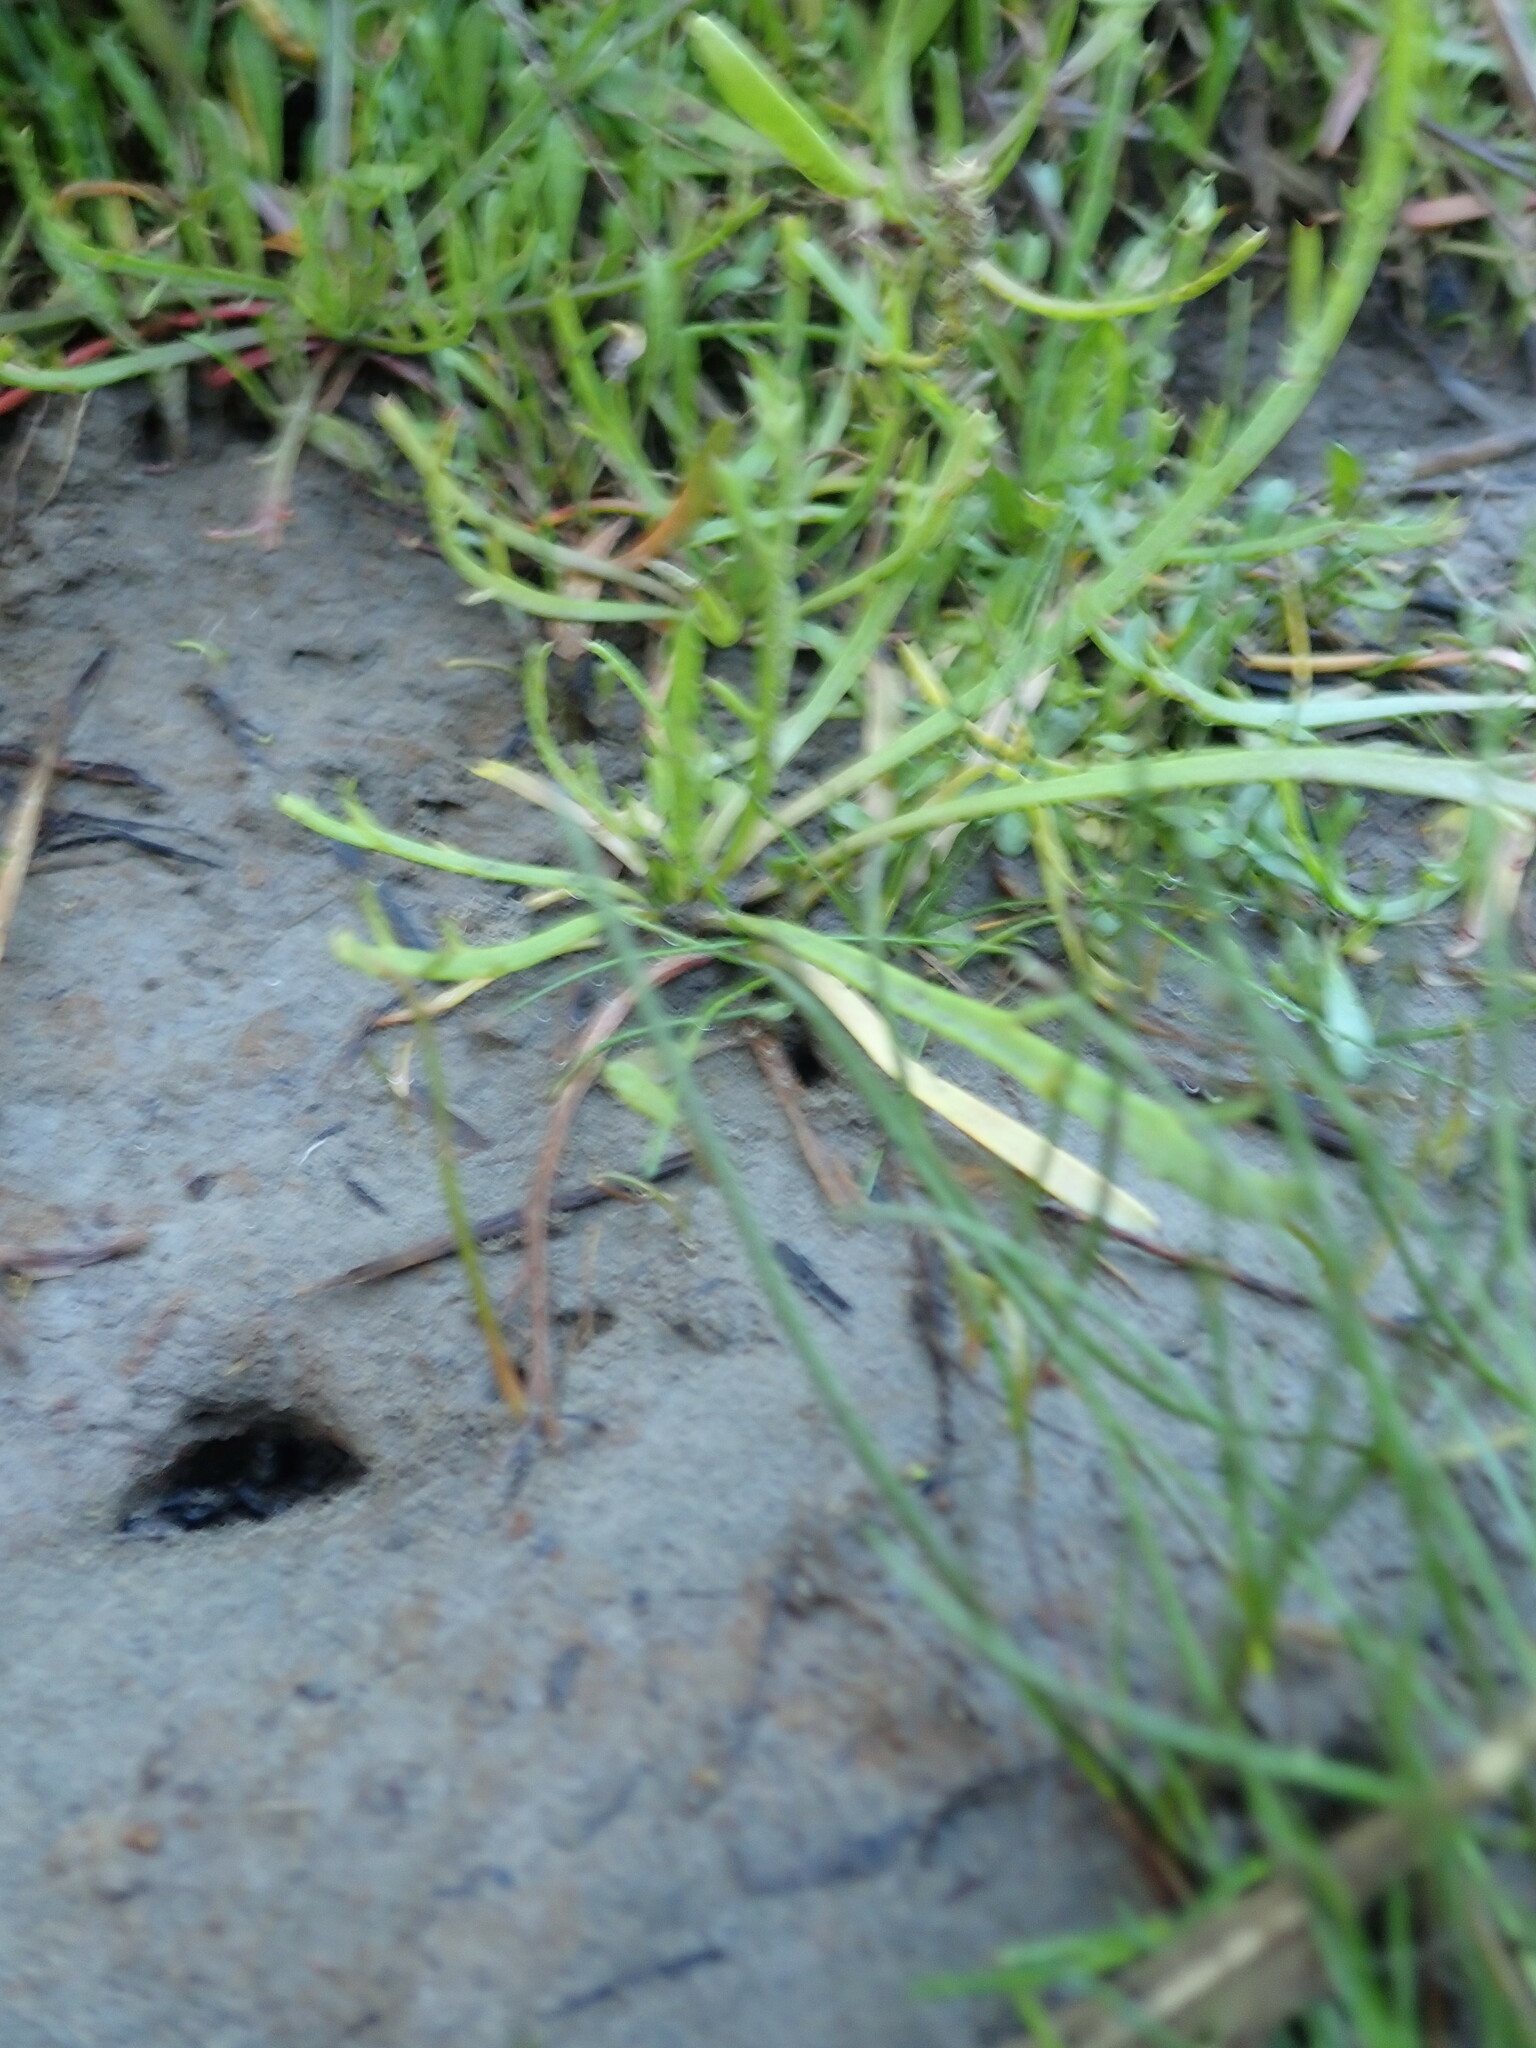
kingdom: Plantae
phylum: Tracheophyta
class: Magnoliopsida
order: Lamiales
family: Plantaginaceae
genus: Plantago
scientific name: Plantago coronopus
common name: Buck's-horn plantain
